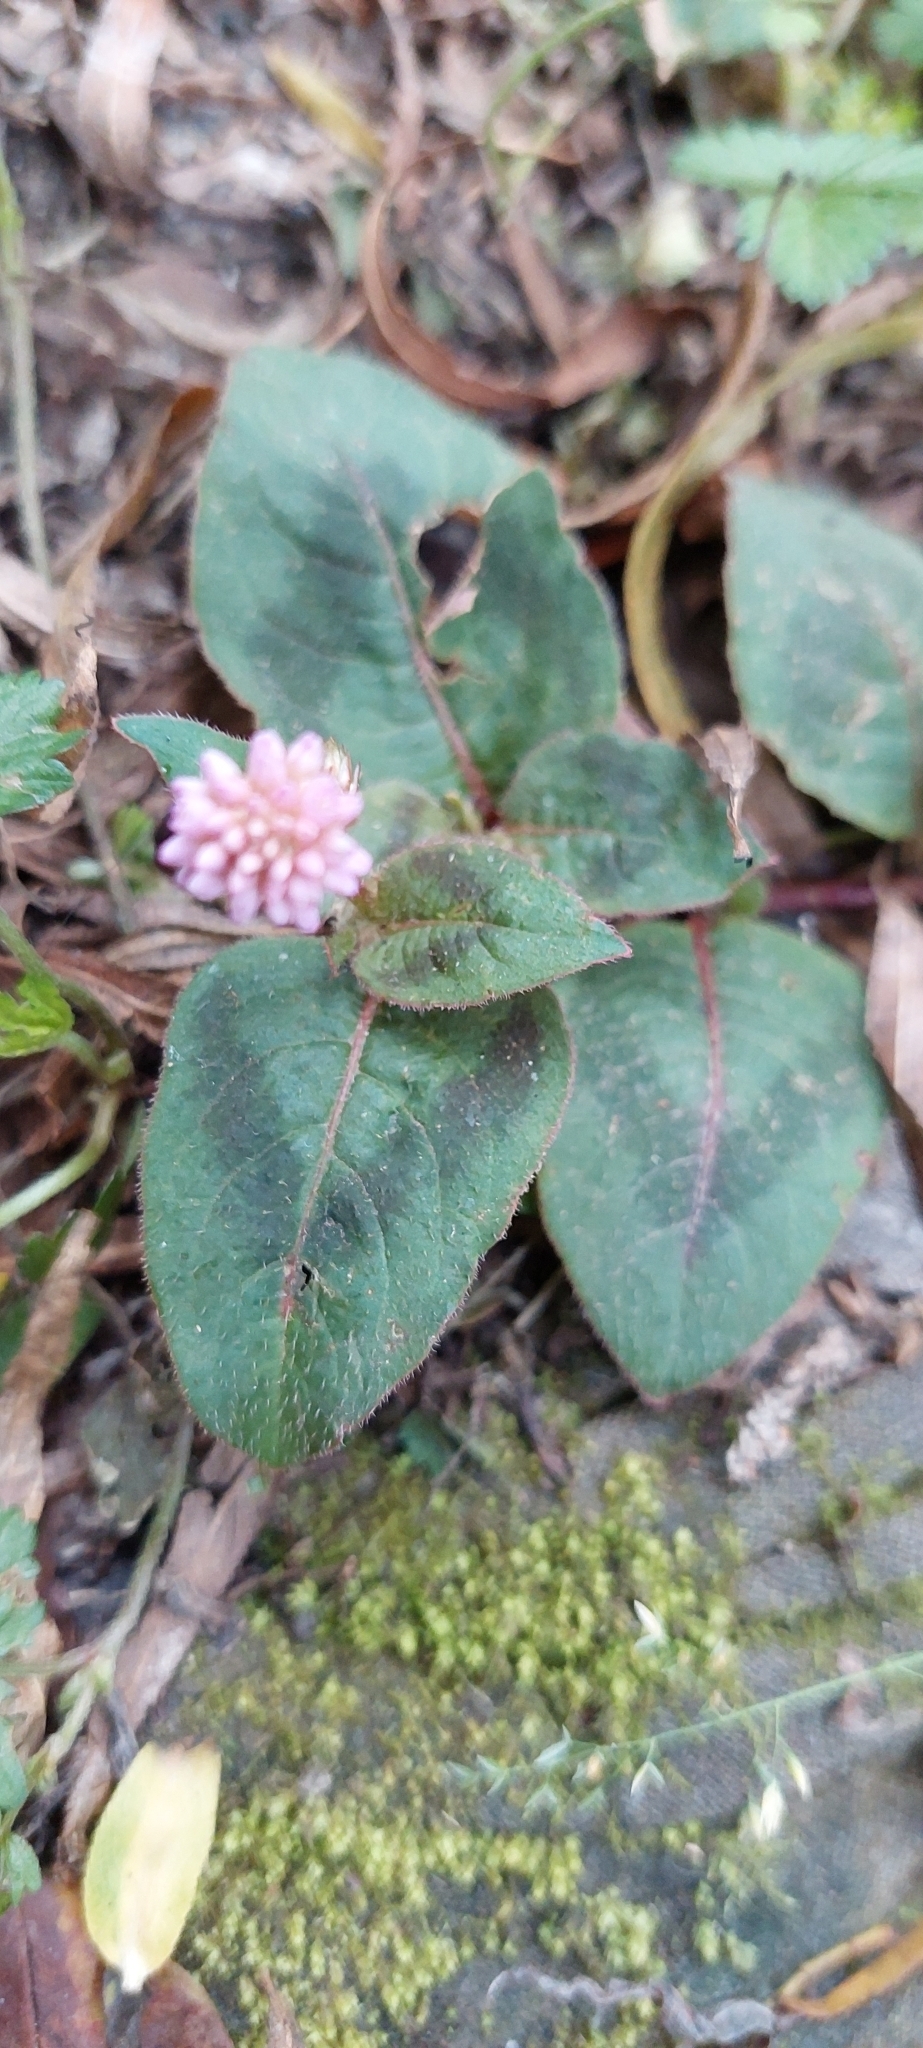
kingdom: Plantae
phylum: Tracheophyta
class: Magnoliopsida
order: Caryophyllales
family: Polygonaceae
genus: Persicaria
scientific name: Persicaria capitata
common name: Pinkhead smartweed
